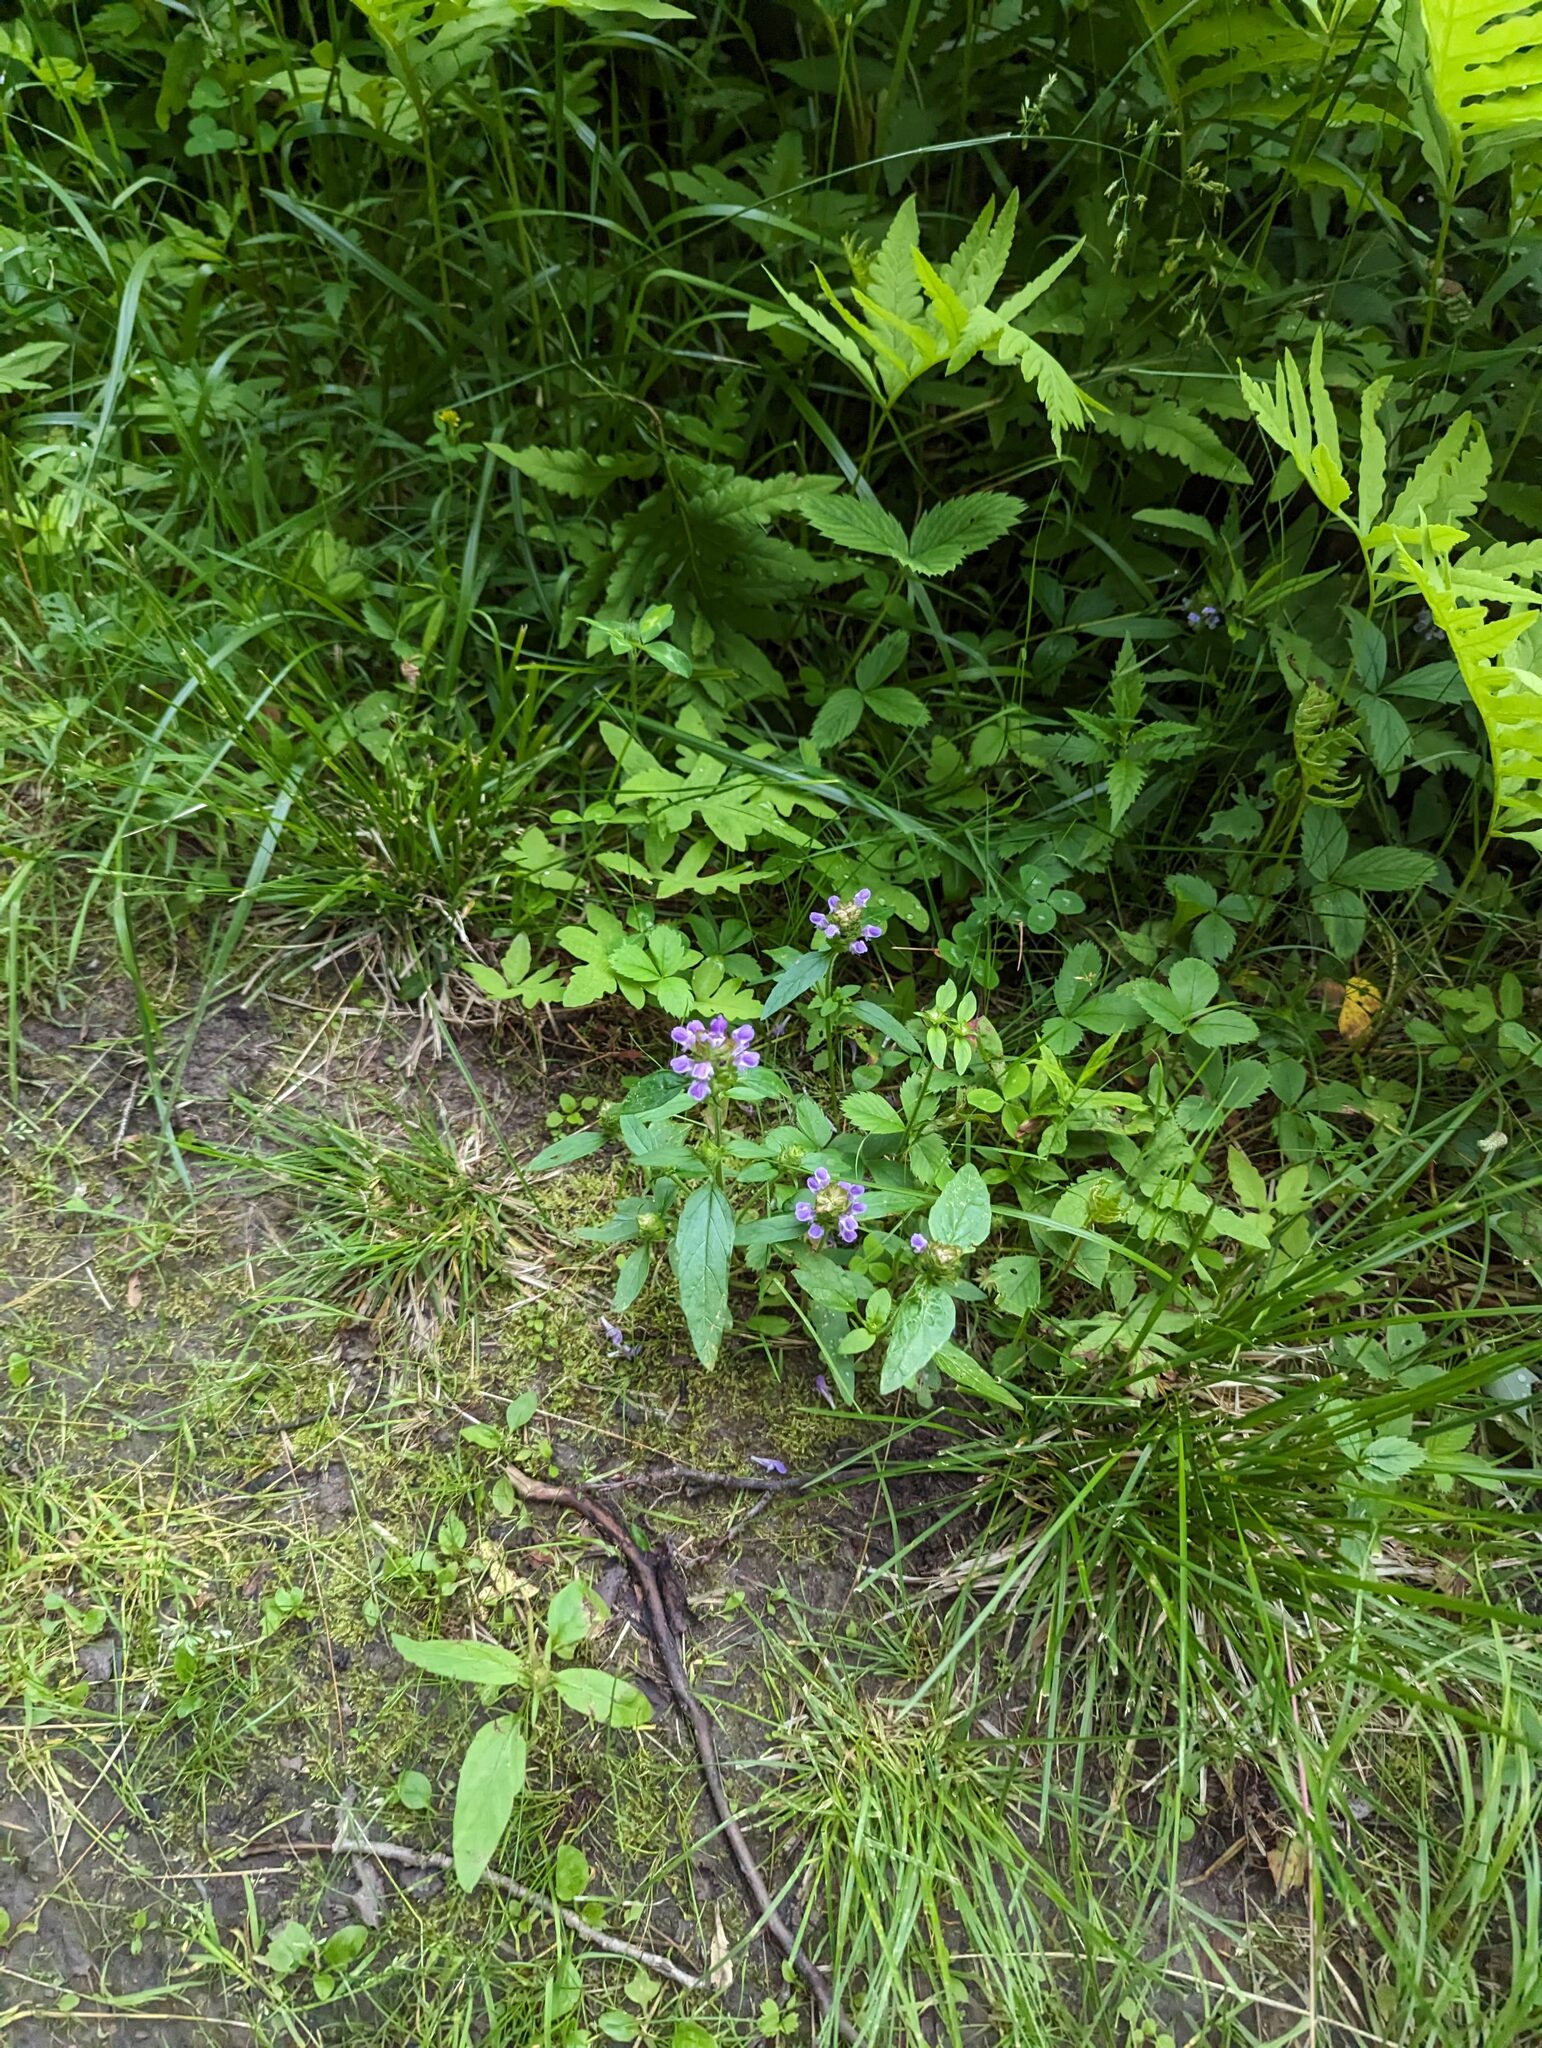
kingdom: Plantae
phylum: Tracheophyta
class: Magnoliopsida
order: Lamiales
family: Lamiaceae
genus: Prunella
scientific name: Prunella vulgaris
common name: Heal-all
